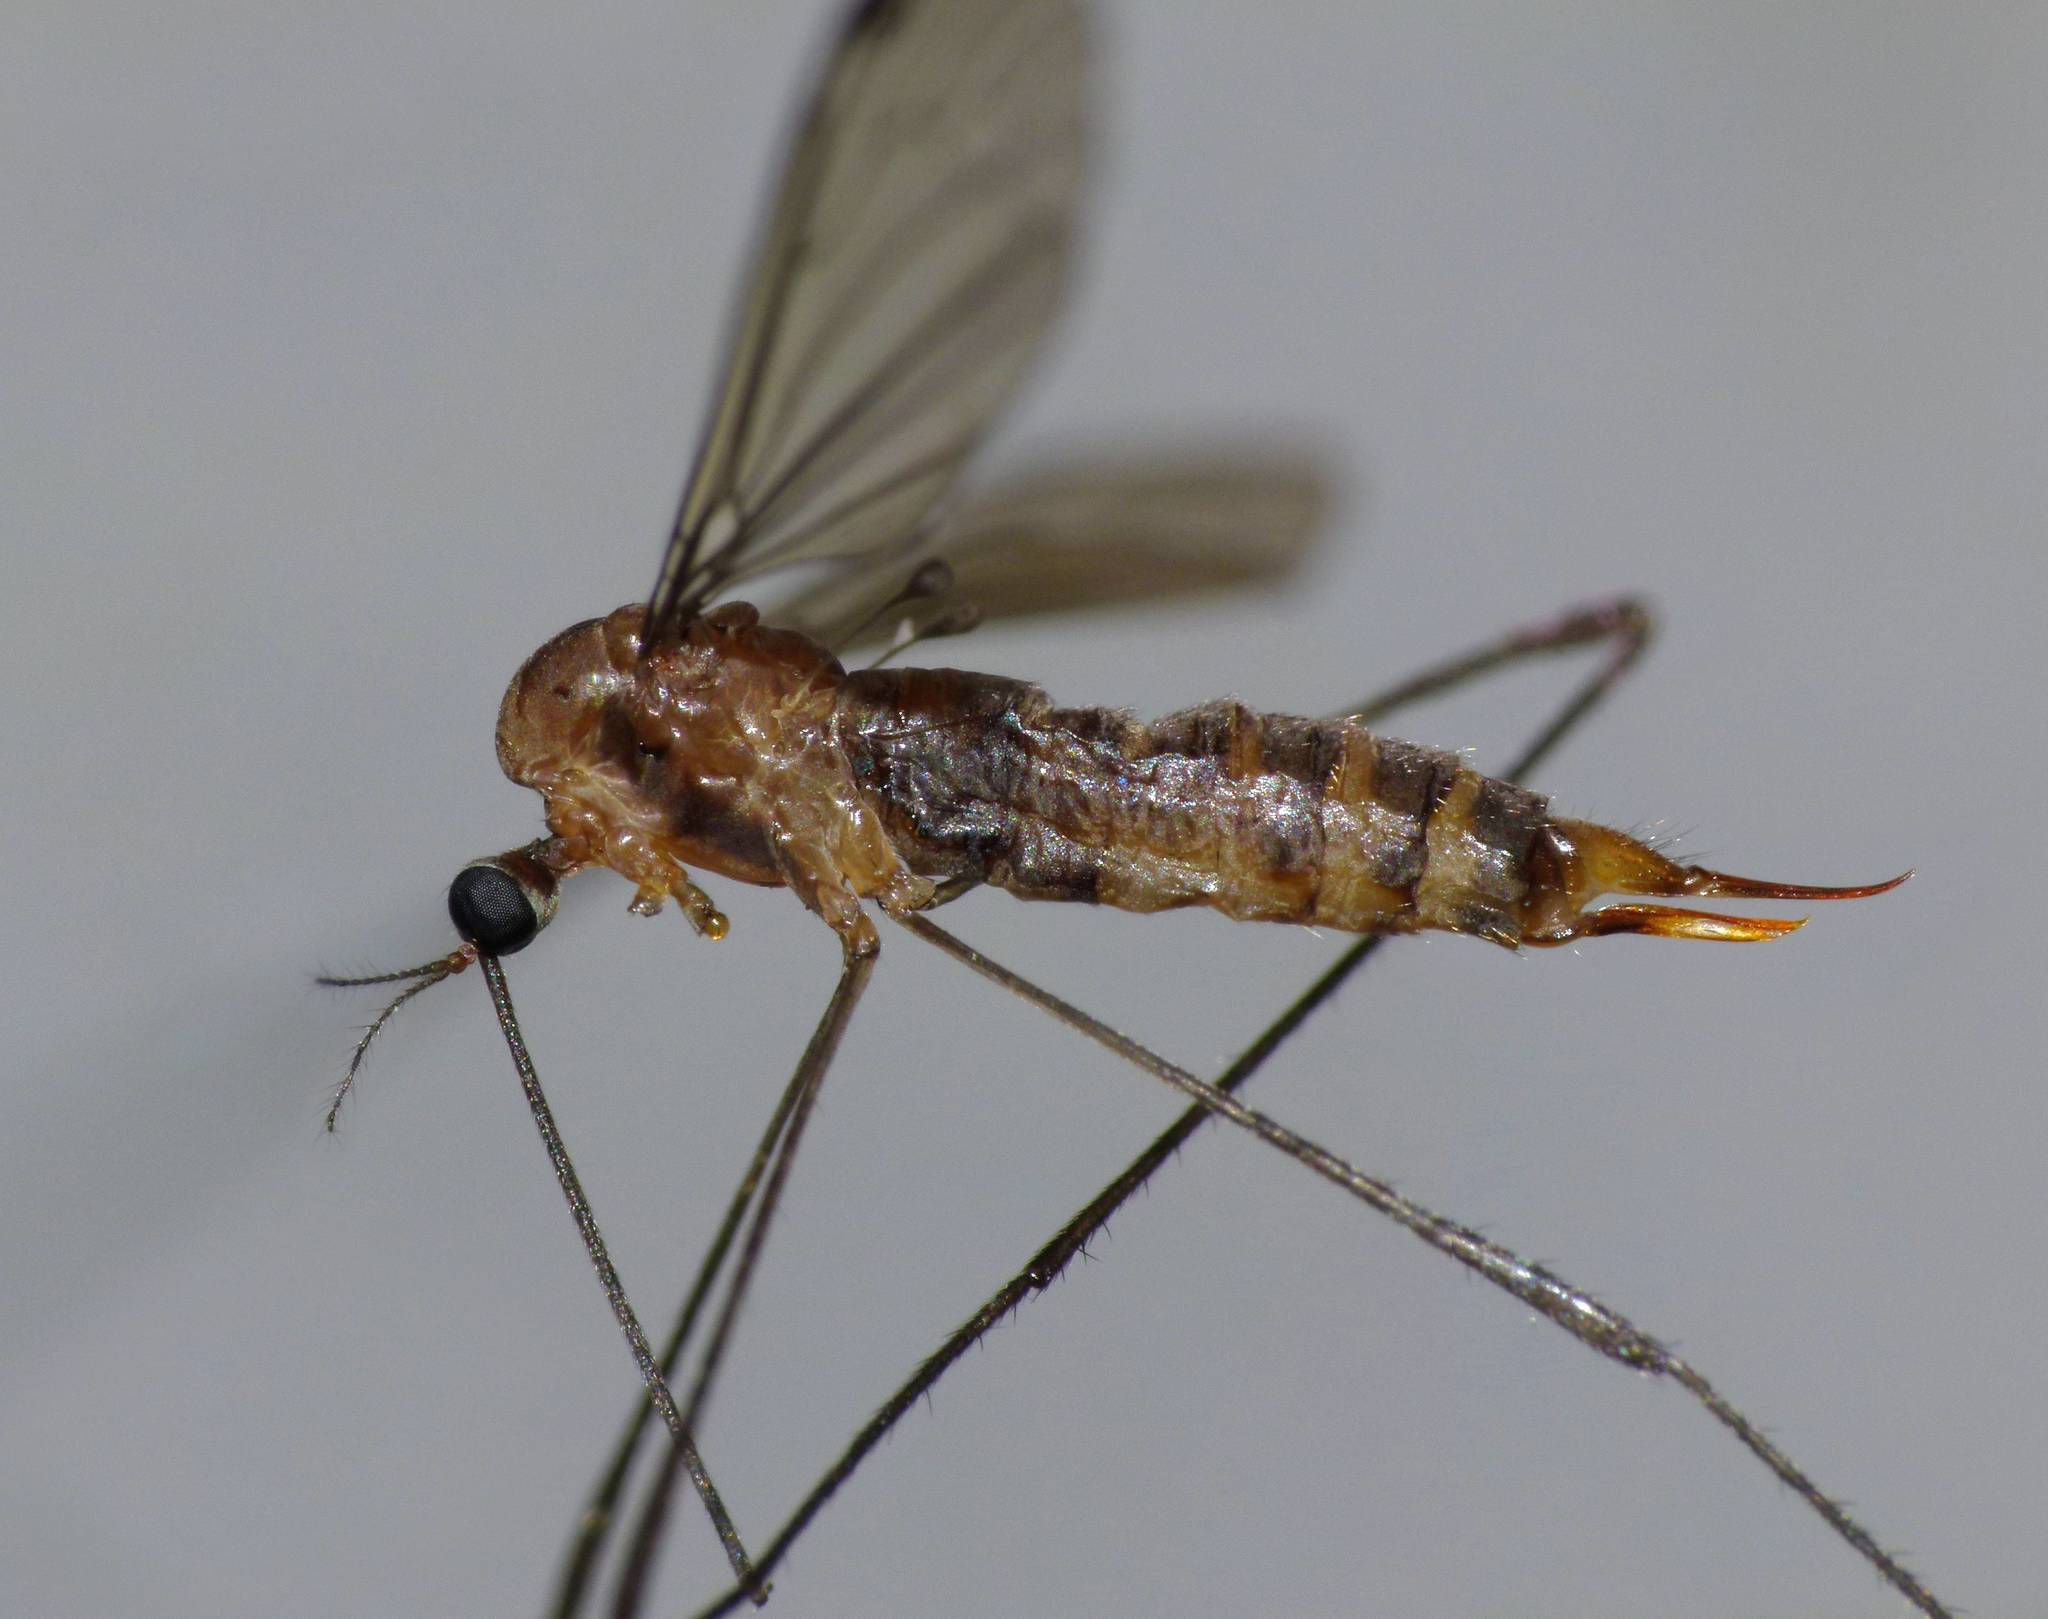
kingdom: Animalia
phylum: Arthropoda
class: Insecta
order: Diptera
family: Limoniidae
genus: Elephantomyia
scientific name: Elephantomyia zealandica
